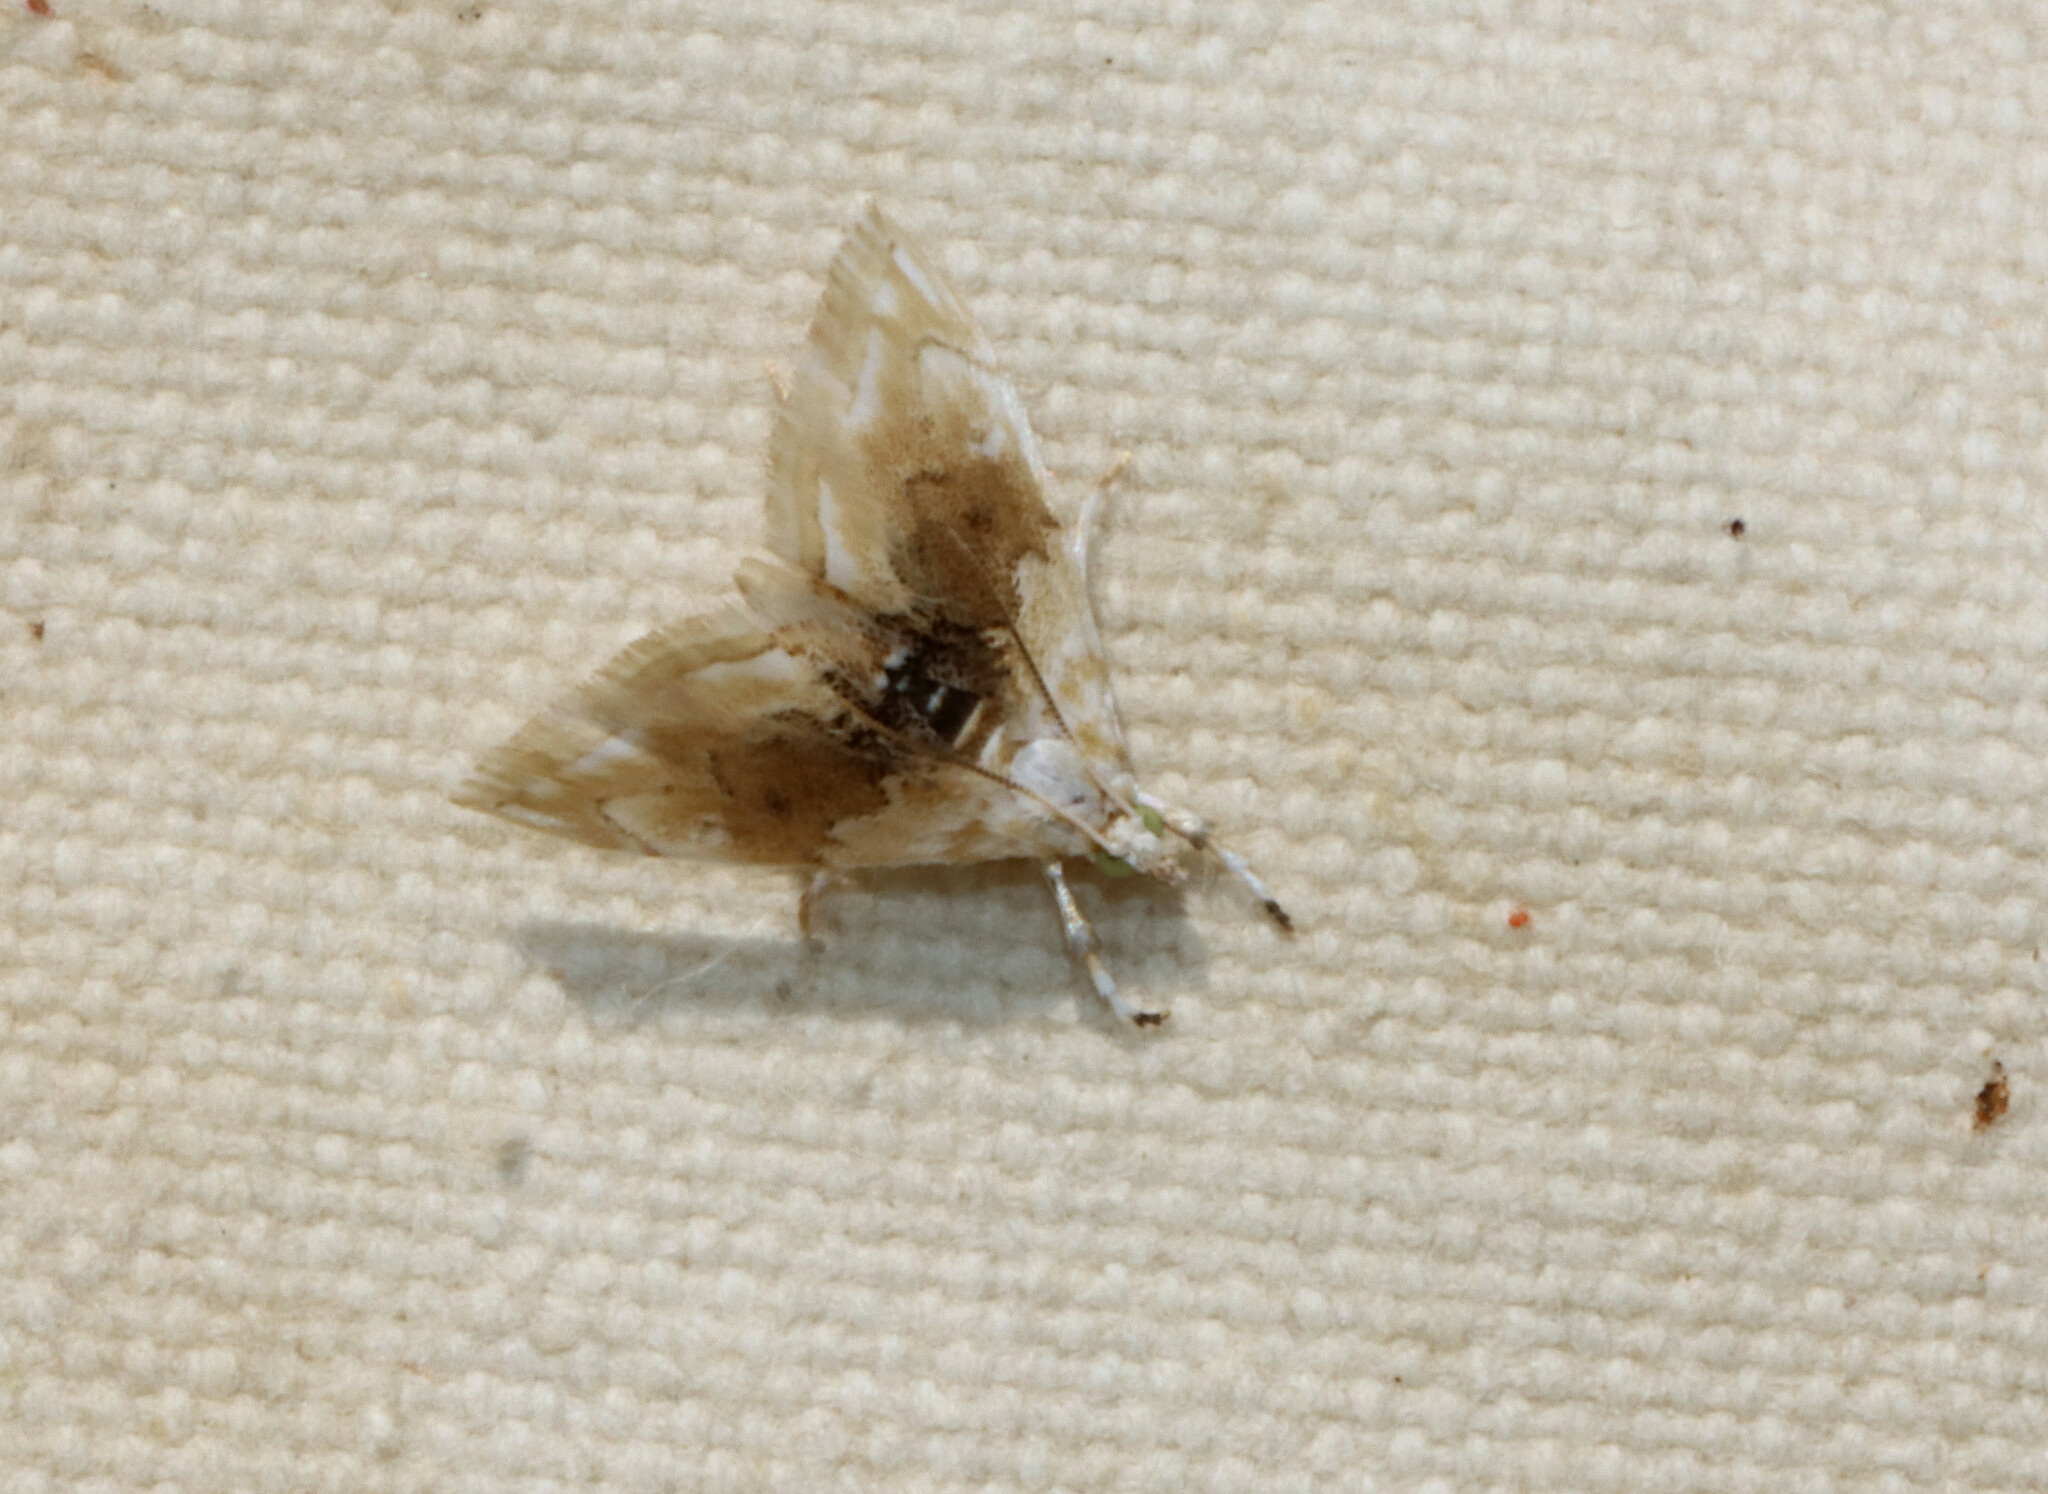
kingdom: Animalia
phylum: Arthropoda
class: Insecta
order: Lepidoptera
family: Crambidae
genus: Lipocosma
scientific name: Lipocosma sicalis
